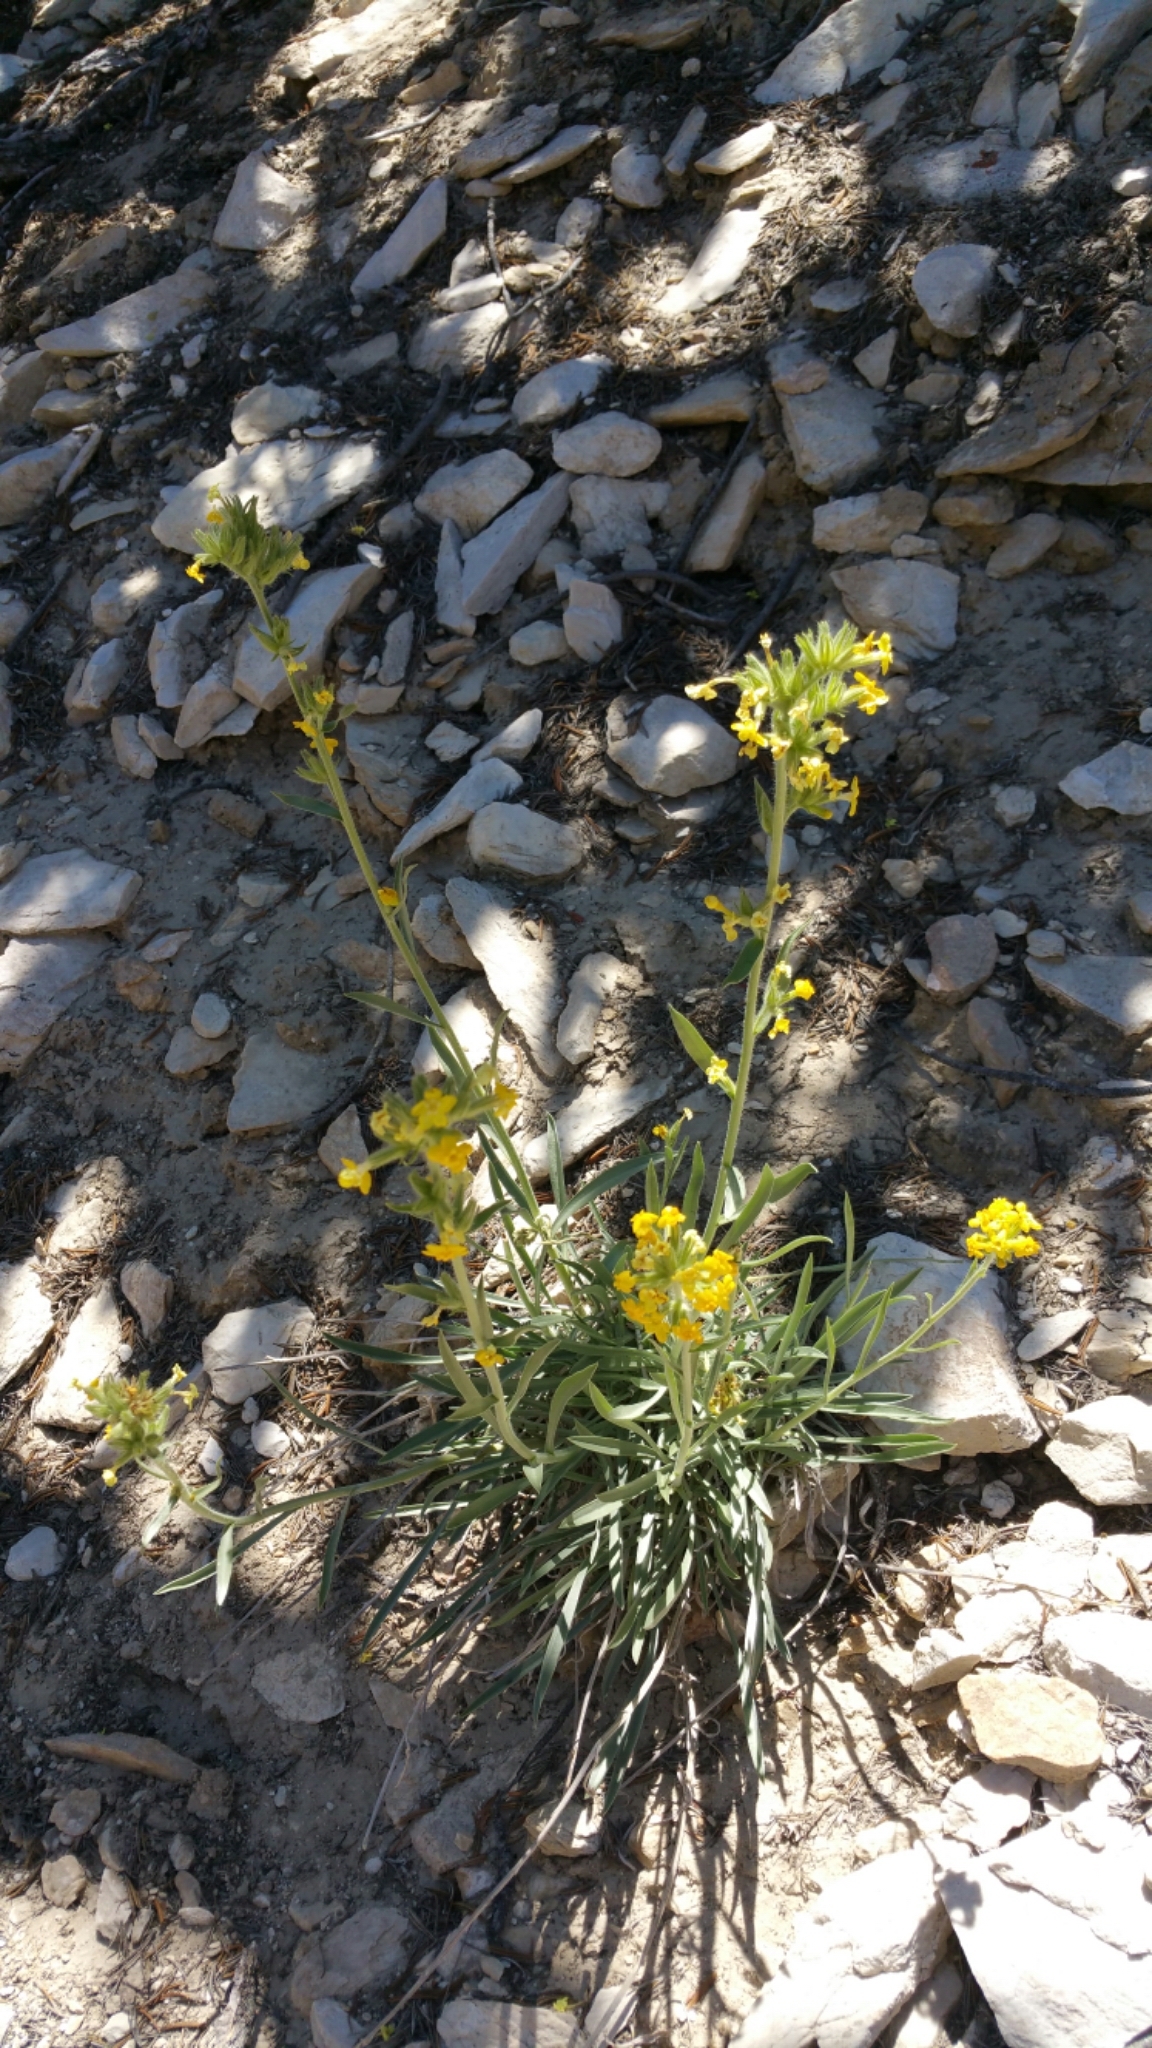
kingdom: Plantae
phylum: Tracheophyta
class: Magnoliopsida
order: Boraginales
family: Boraginaceae
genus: Oreocarya
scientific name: Oreocarya confertiflora
